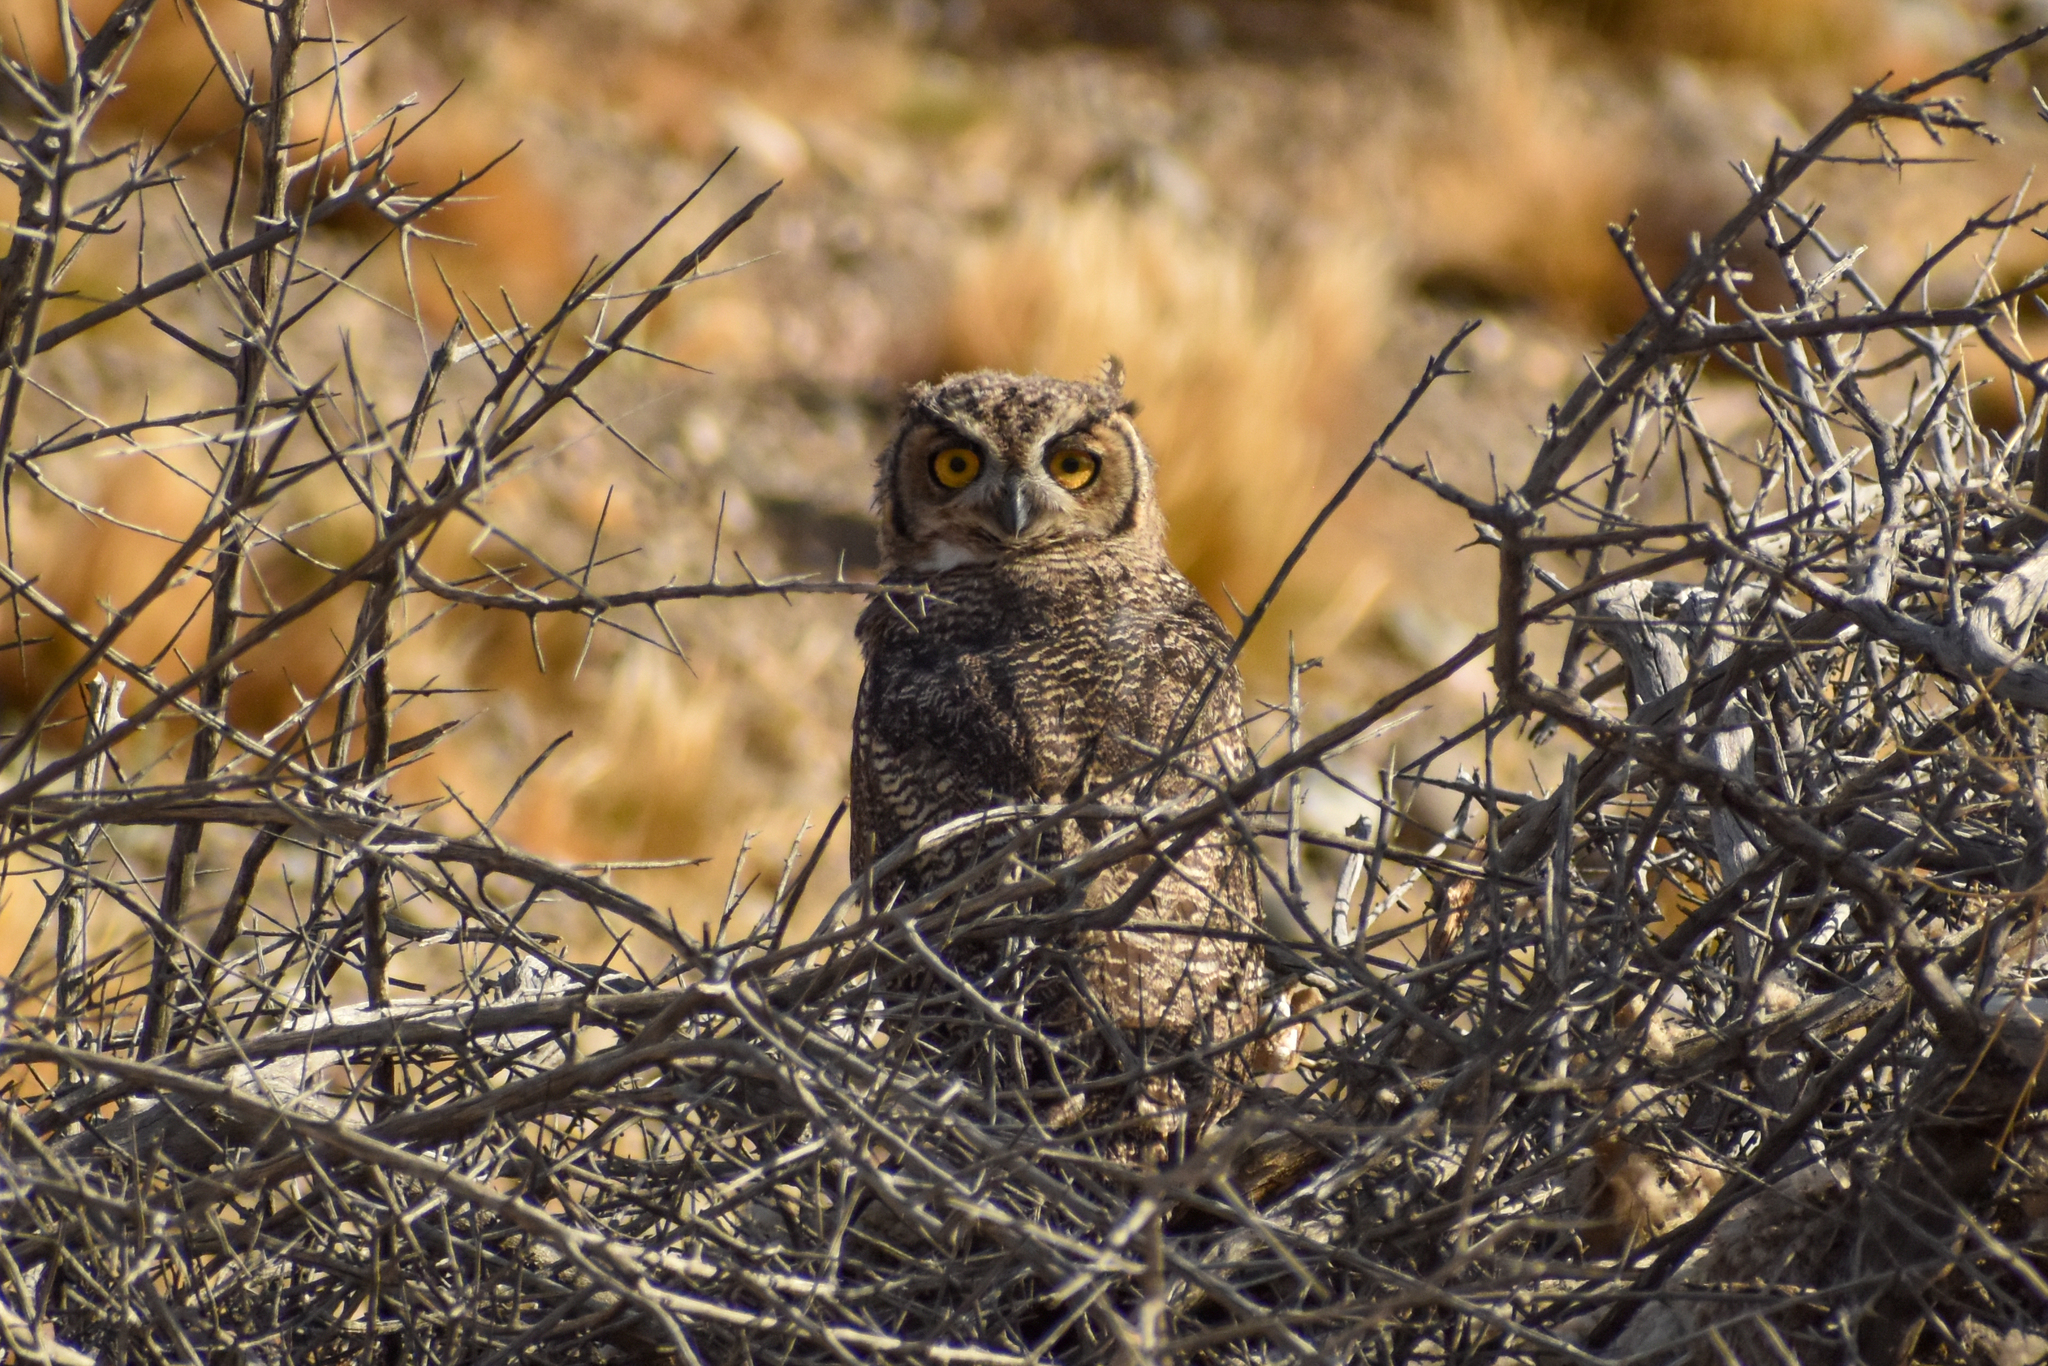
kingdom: Animalia
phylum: Chordata
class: Aves
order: Strigiformes
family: Strigidae
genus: Bubo
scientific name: Bubo magellanicus
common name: Lesser horned owl
